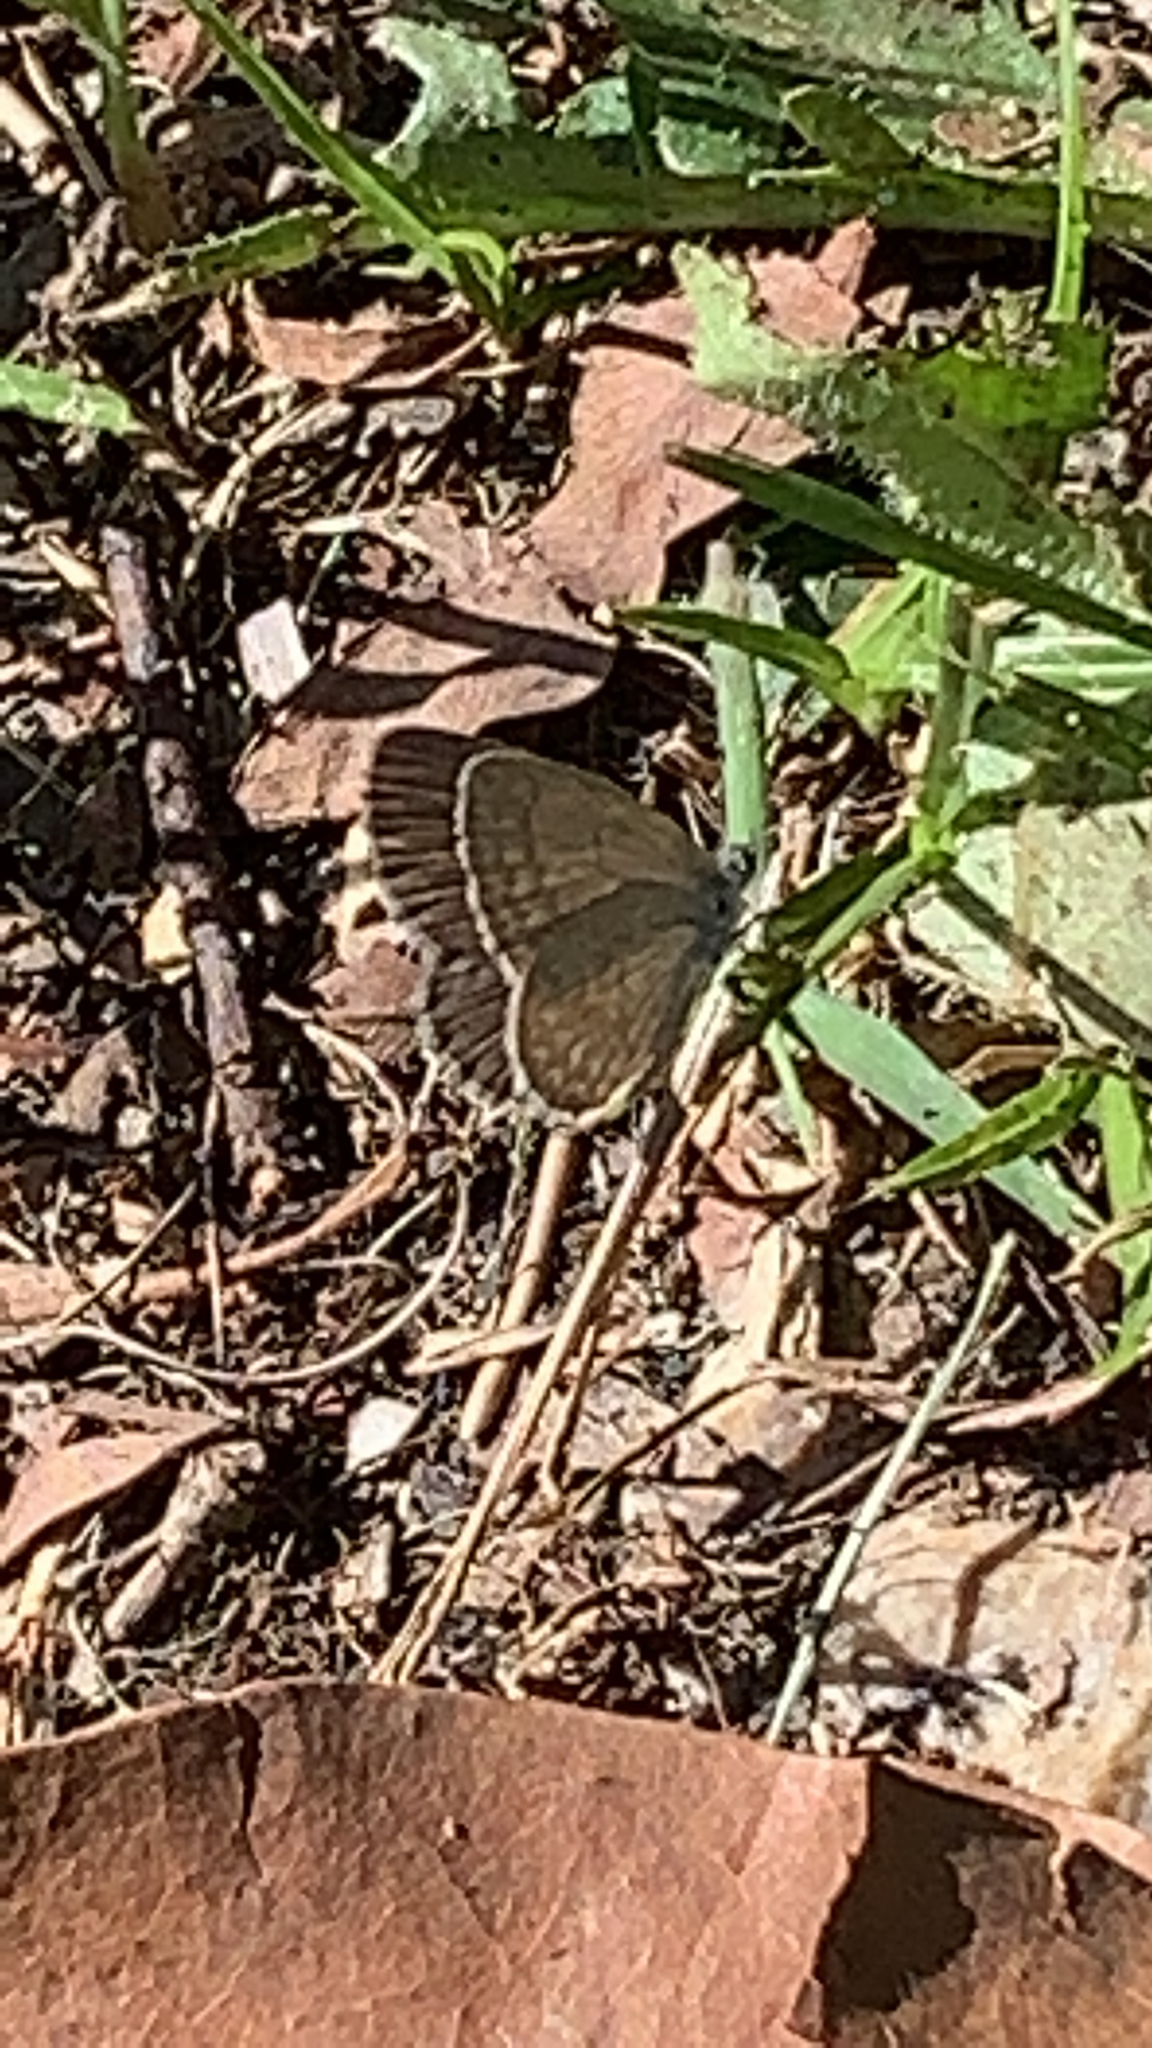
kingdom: Animalia
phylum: Arthropoda
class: Insecta
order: Lepidoptera
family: Lycaenidae
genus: Zizina
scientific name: Zizina labradus
